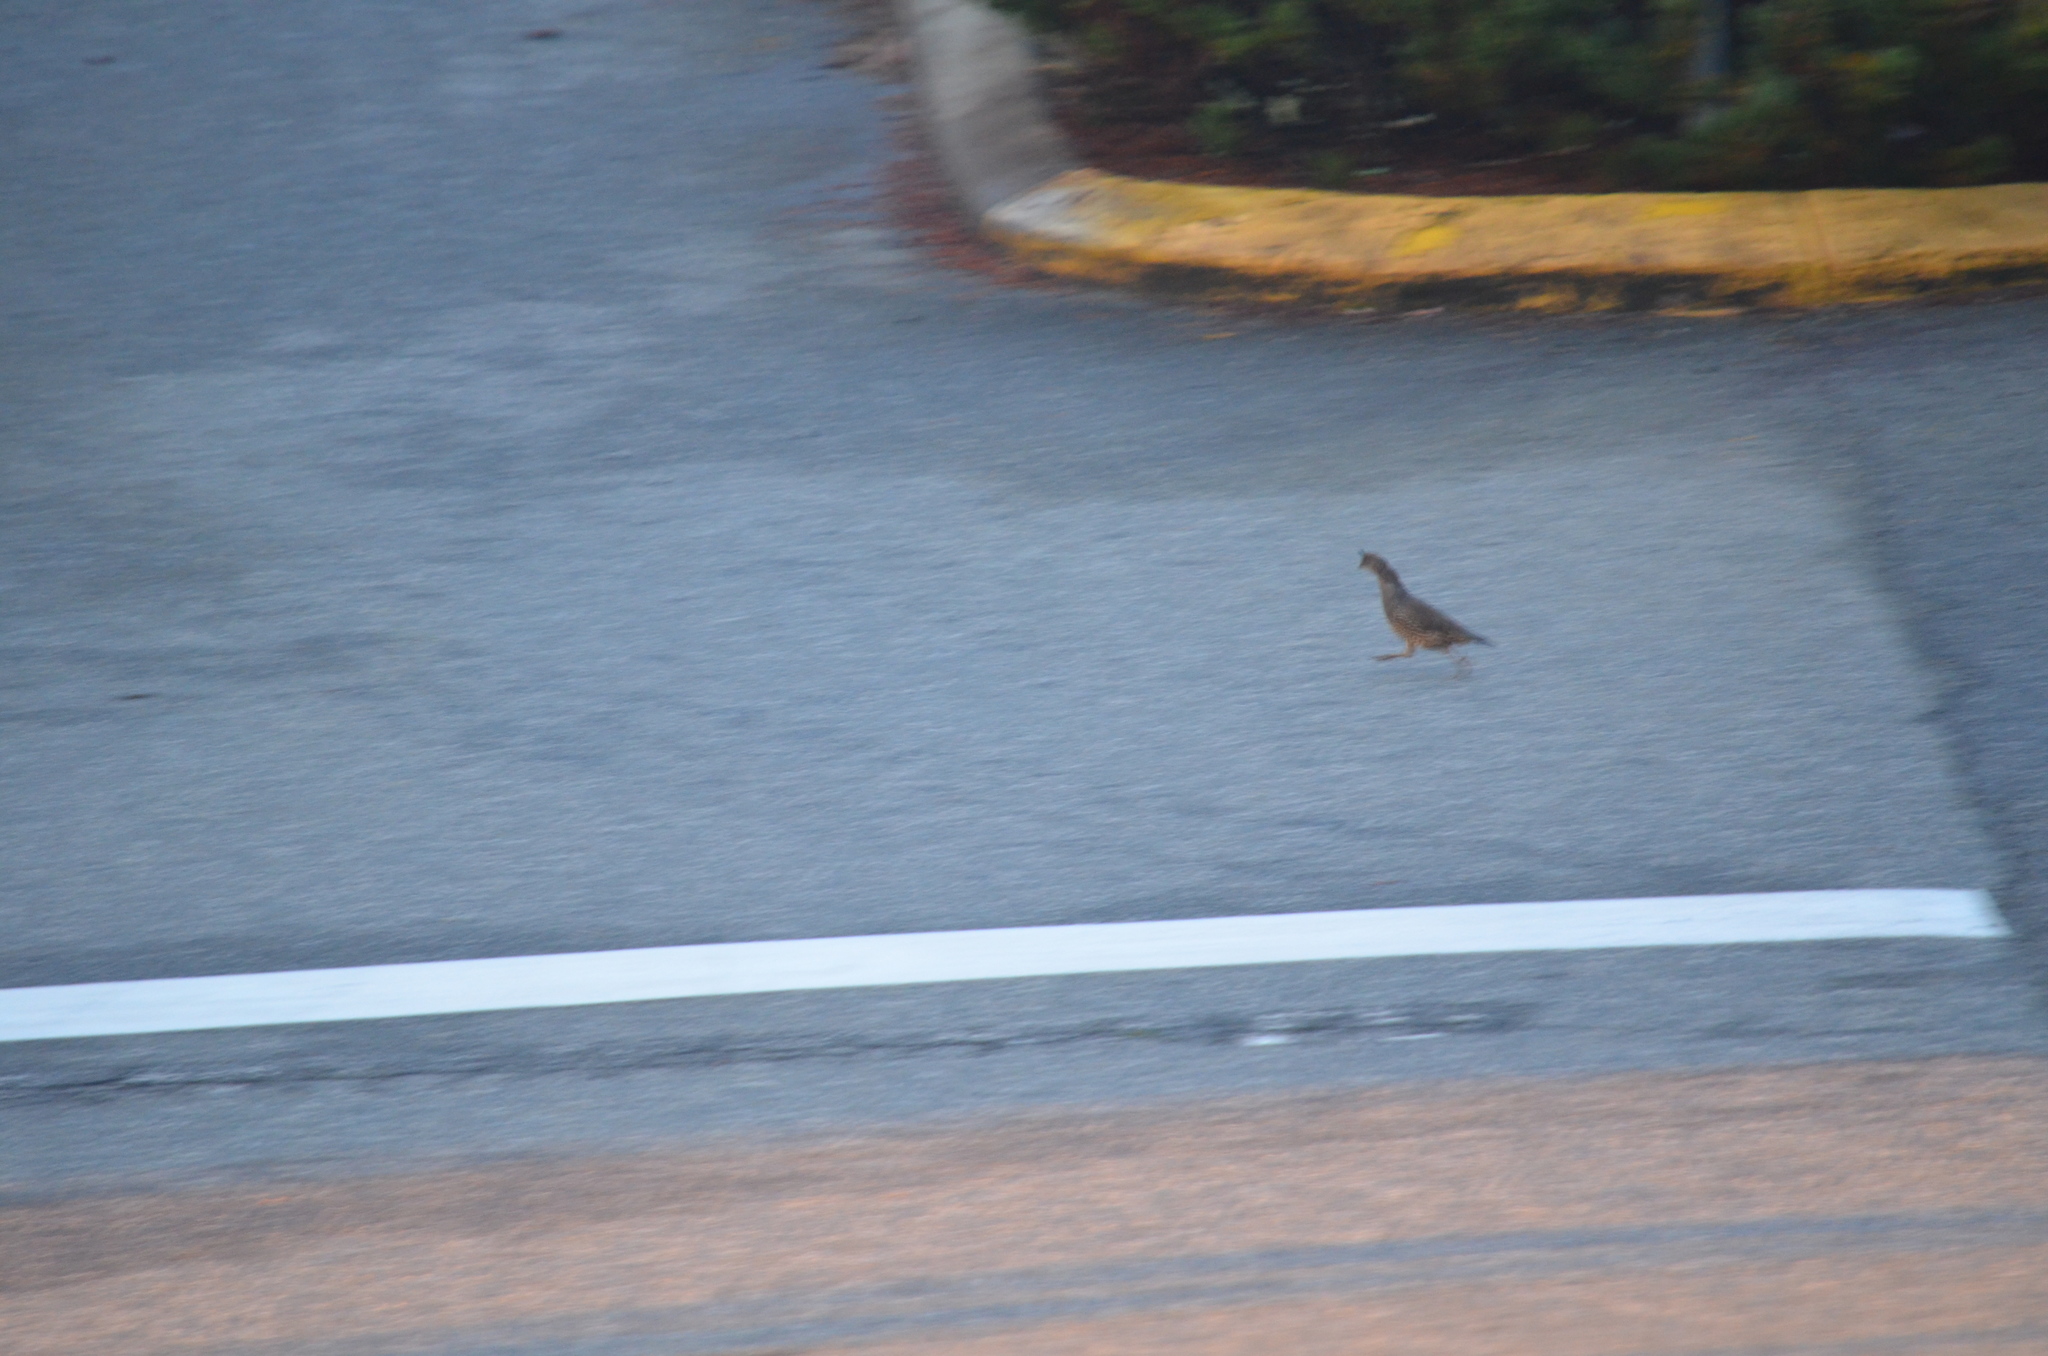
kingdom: Animalia
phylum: Chordata
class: Aves
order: Galliformes
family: Odontophoridae
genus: Callipepla
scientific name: Callipepla californica
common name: California quail
